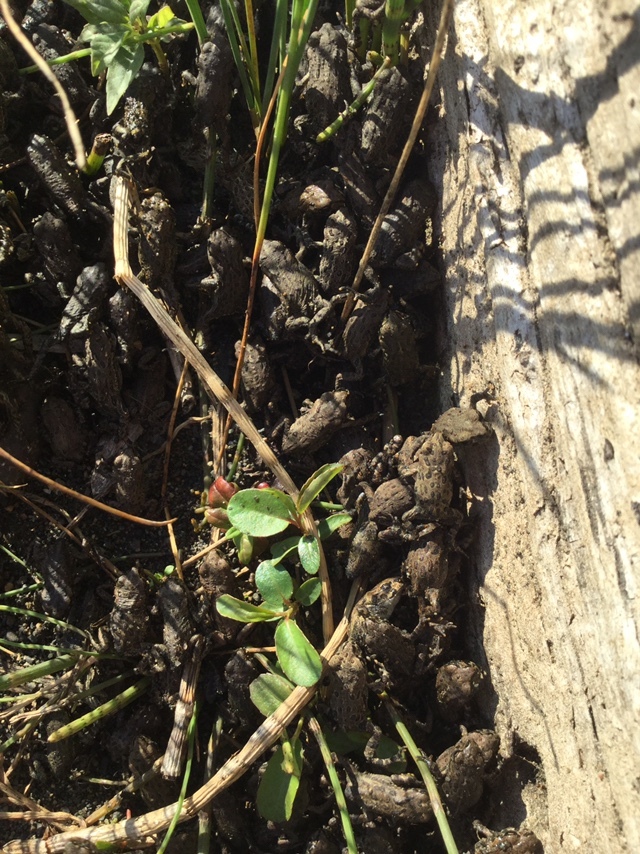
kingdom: Animalia
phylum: Chordata
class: Amphibia
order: Anura
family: Bufonidae
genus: Anaxyrus
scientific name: Anaxyrus boreas
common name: Western toad
